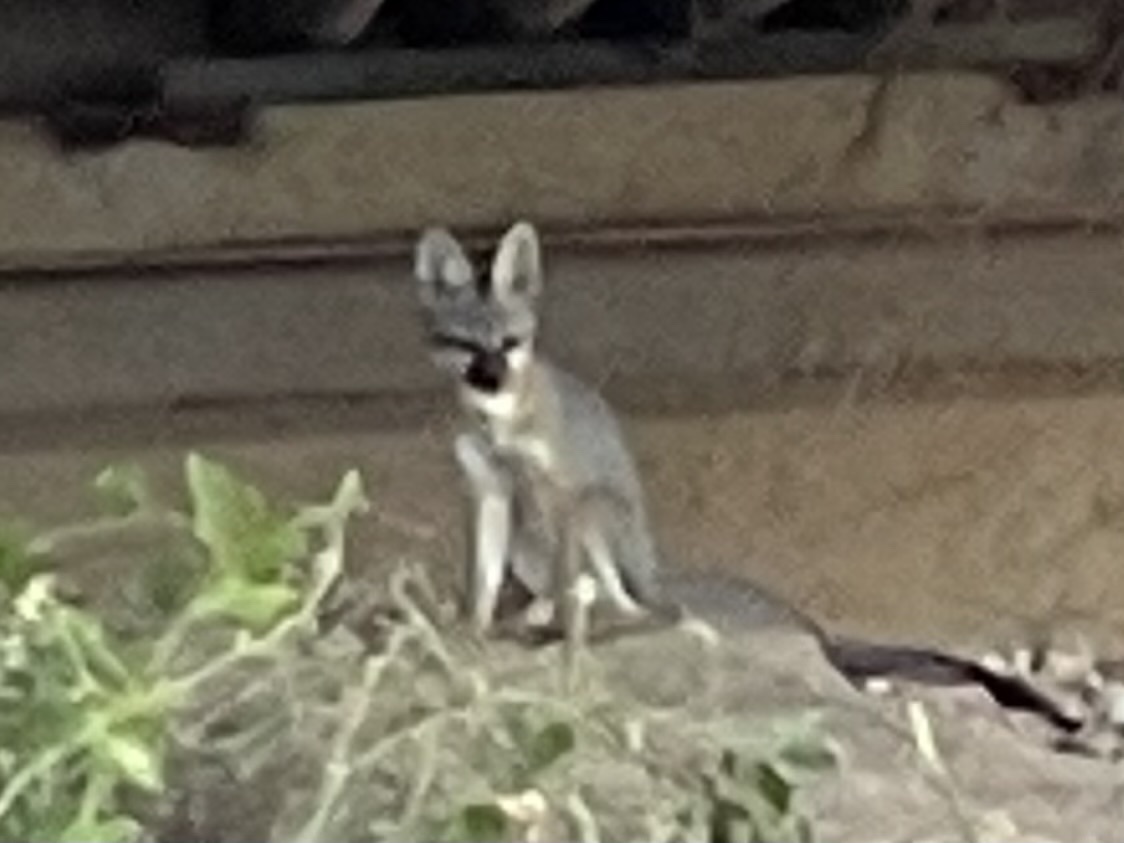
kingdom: Animalia
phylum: Chordata
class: Mammalia
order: Carnivora
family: Canidae
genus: Urocyon
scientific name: Urocyon cinereoargenteus
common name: Gray fox
